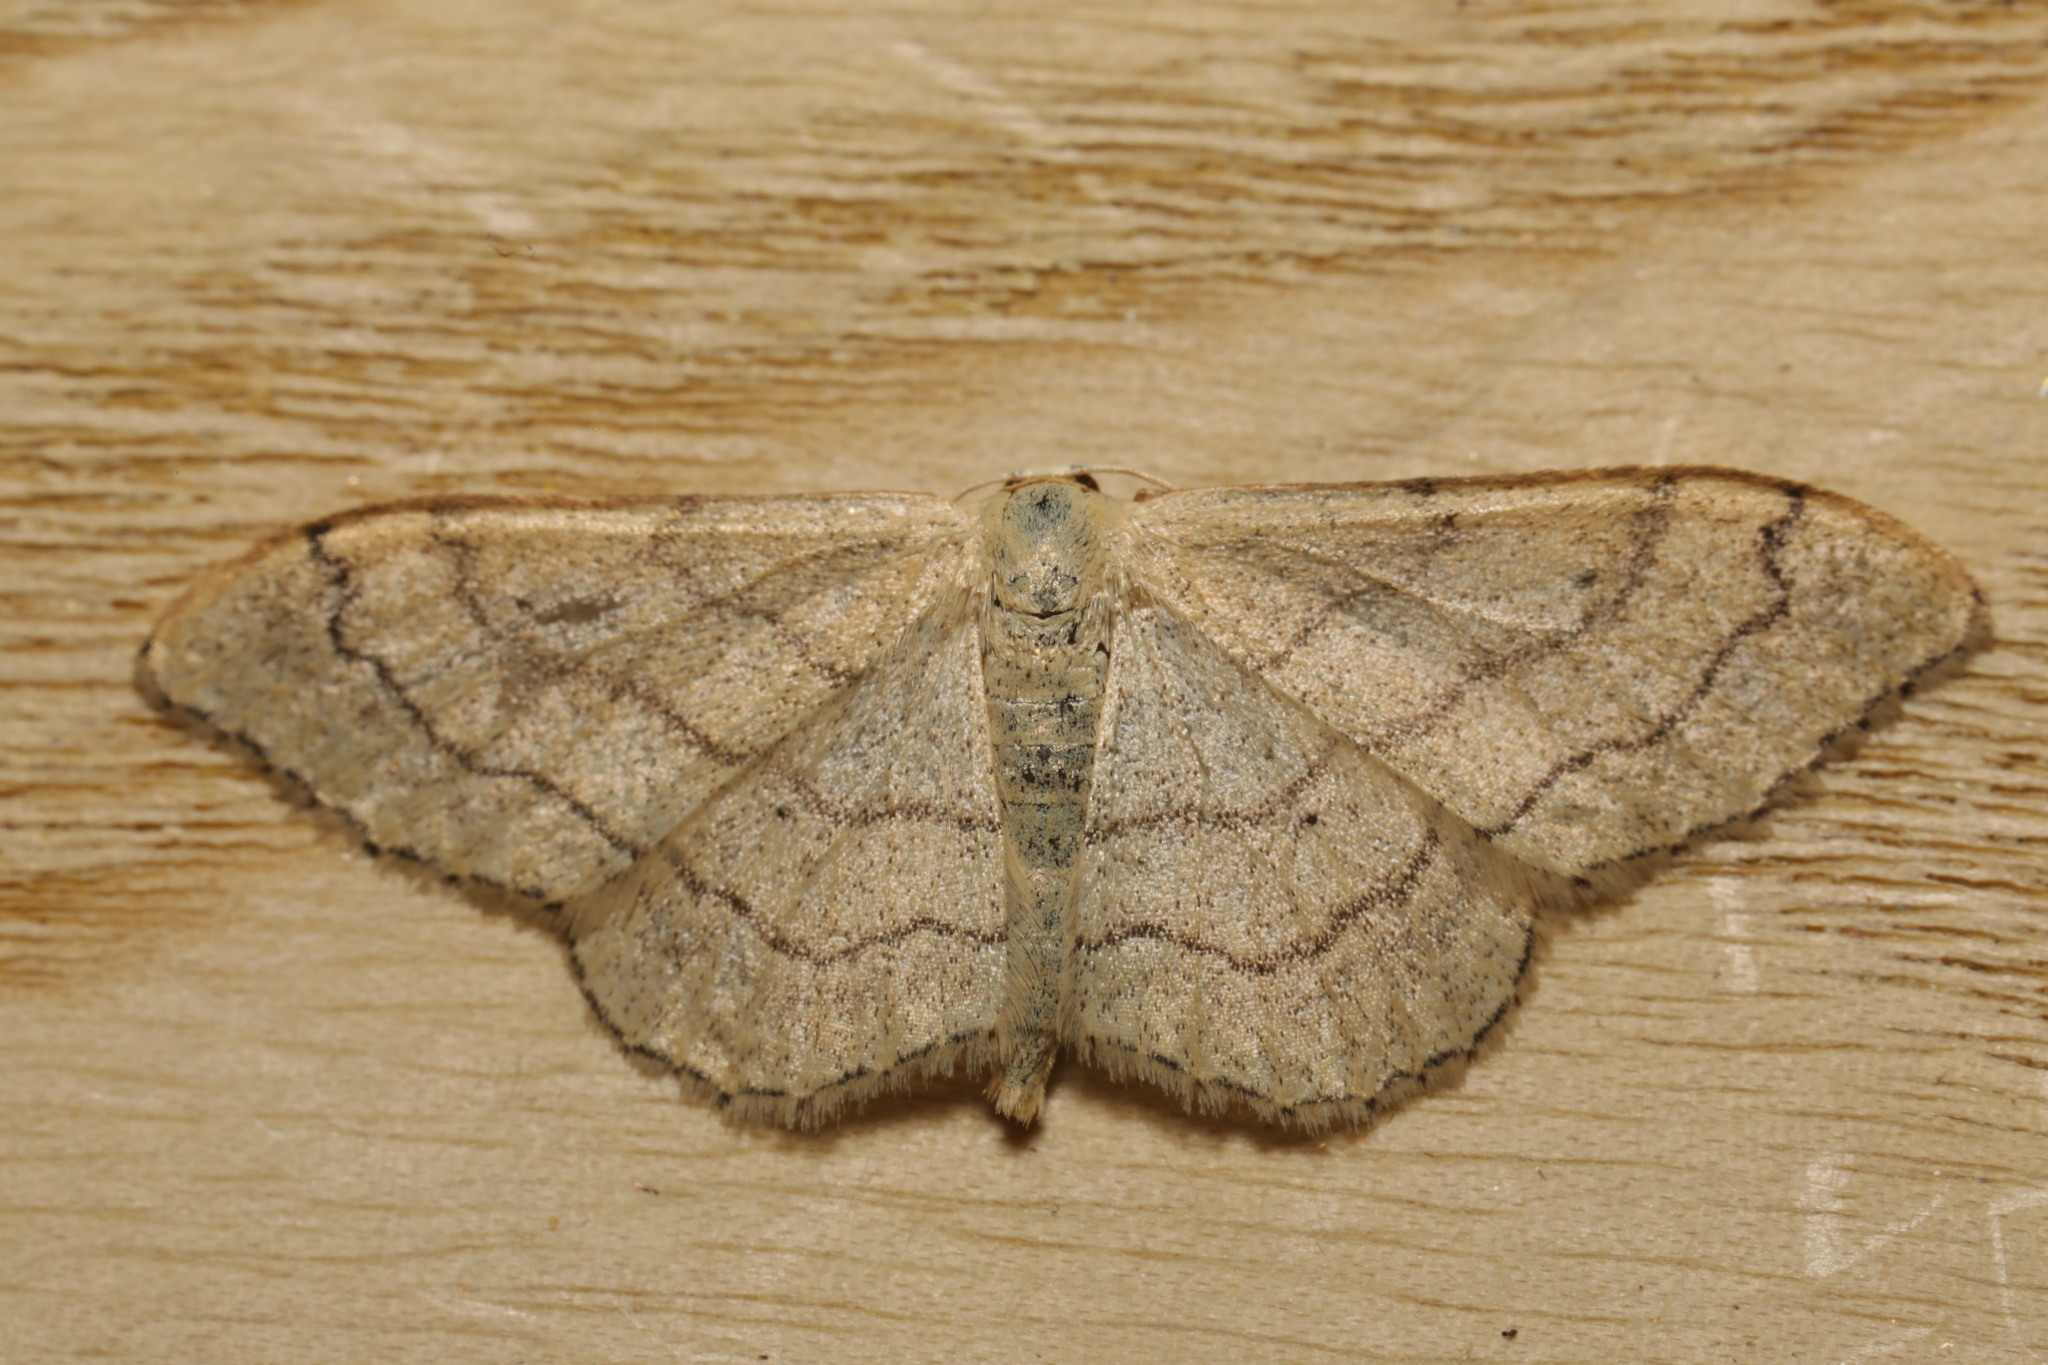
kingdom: Animalia
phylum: Arthropoda
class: Insecta
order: Lepidoptera
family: Geometridae
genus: Idaea
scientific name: Idaea aversata
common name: Riband wave
